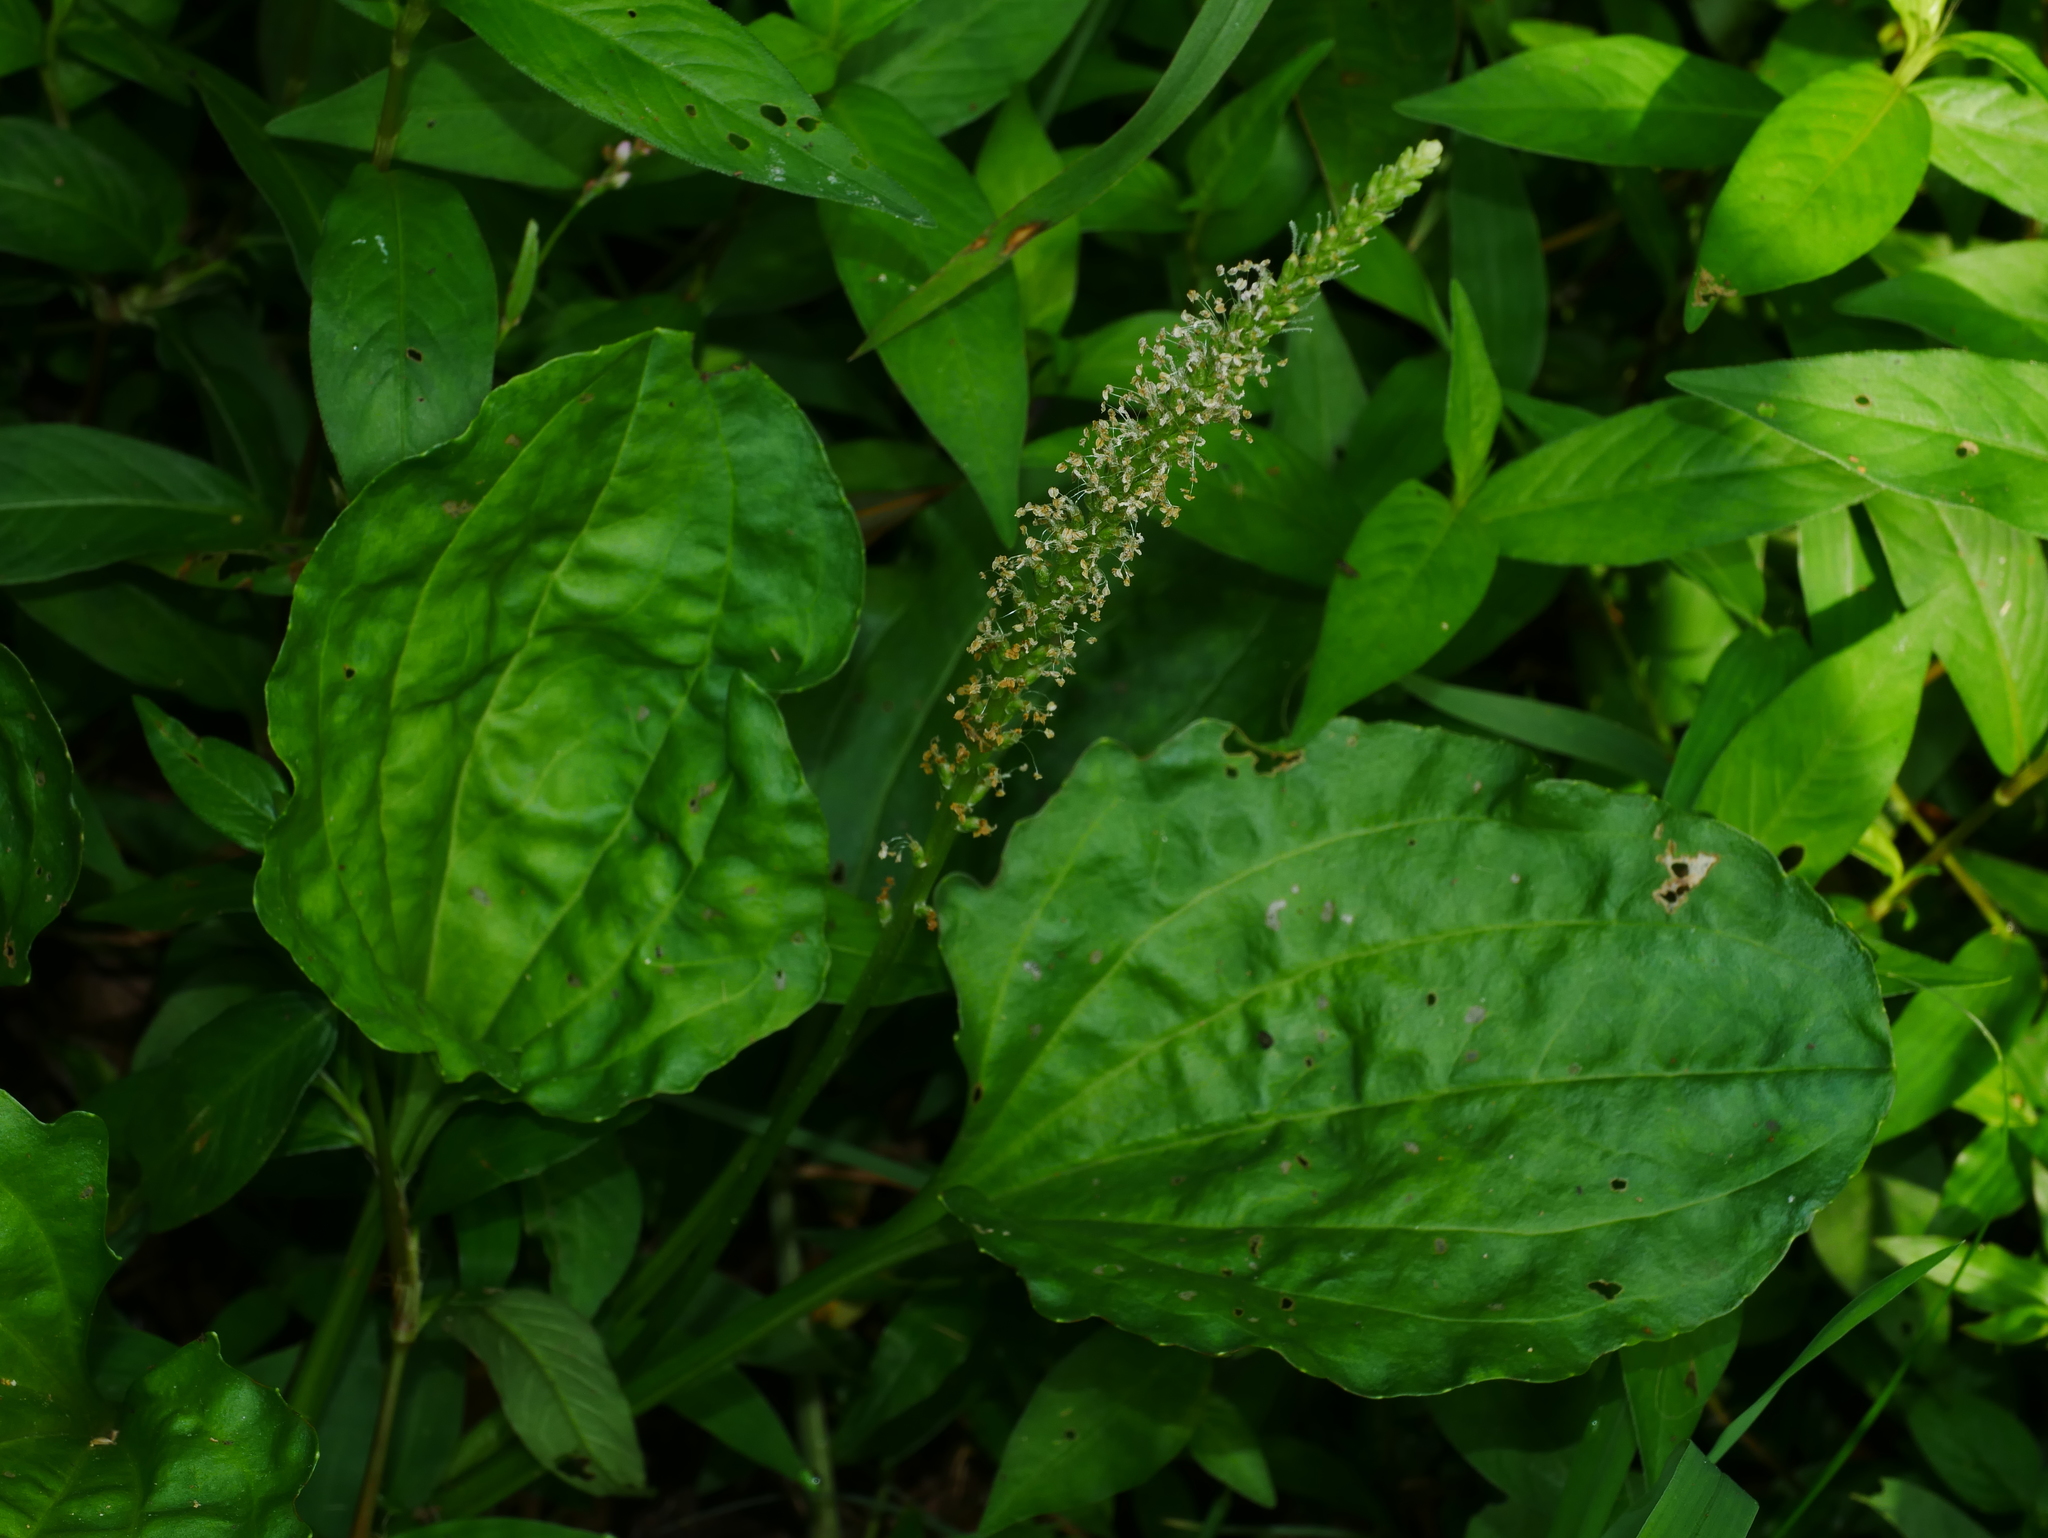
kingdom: Plantae
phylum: Tracheophyta
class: Magnoliopsida
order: Lamiales
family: Plantaginaceae
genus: Plantago
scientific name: Plantago asiatica
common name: Psyllium
